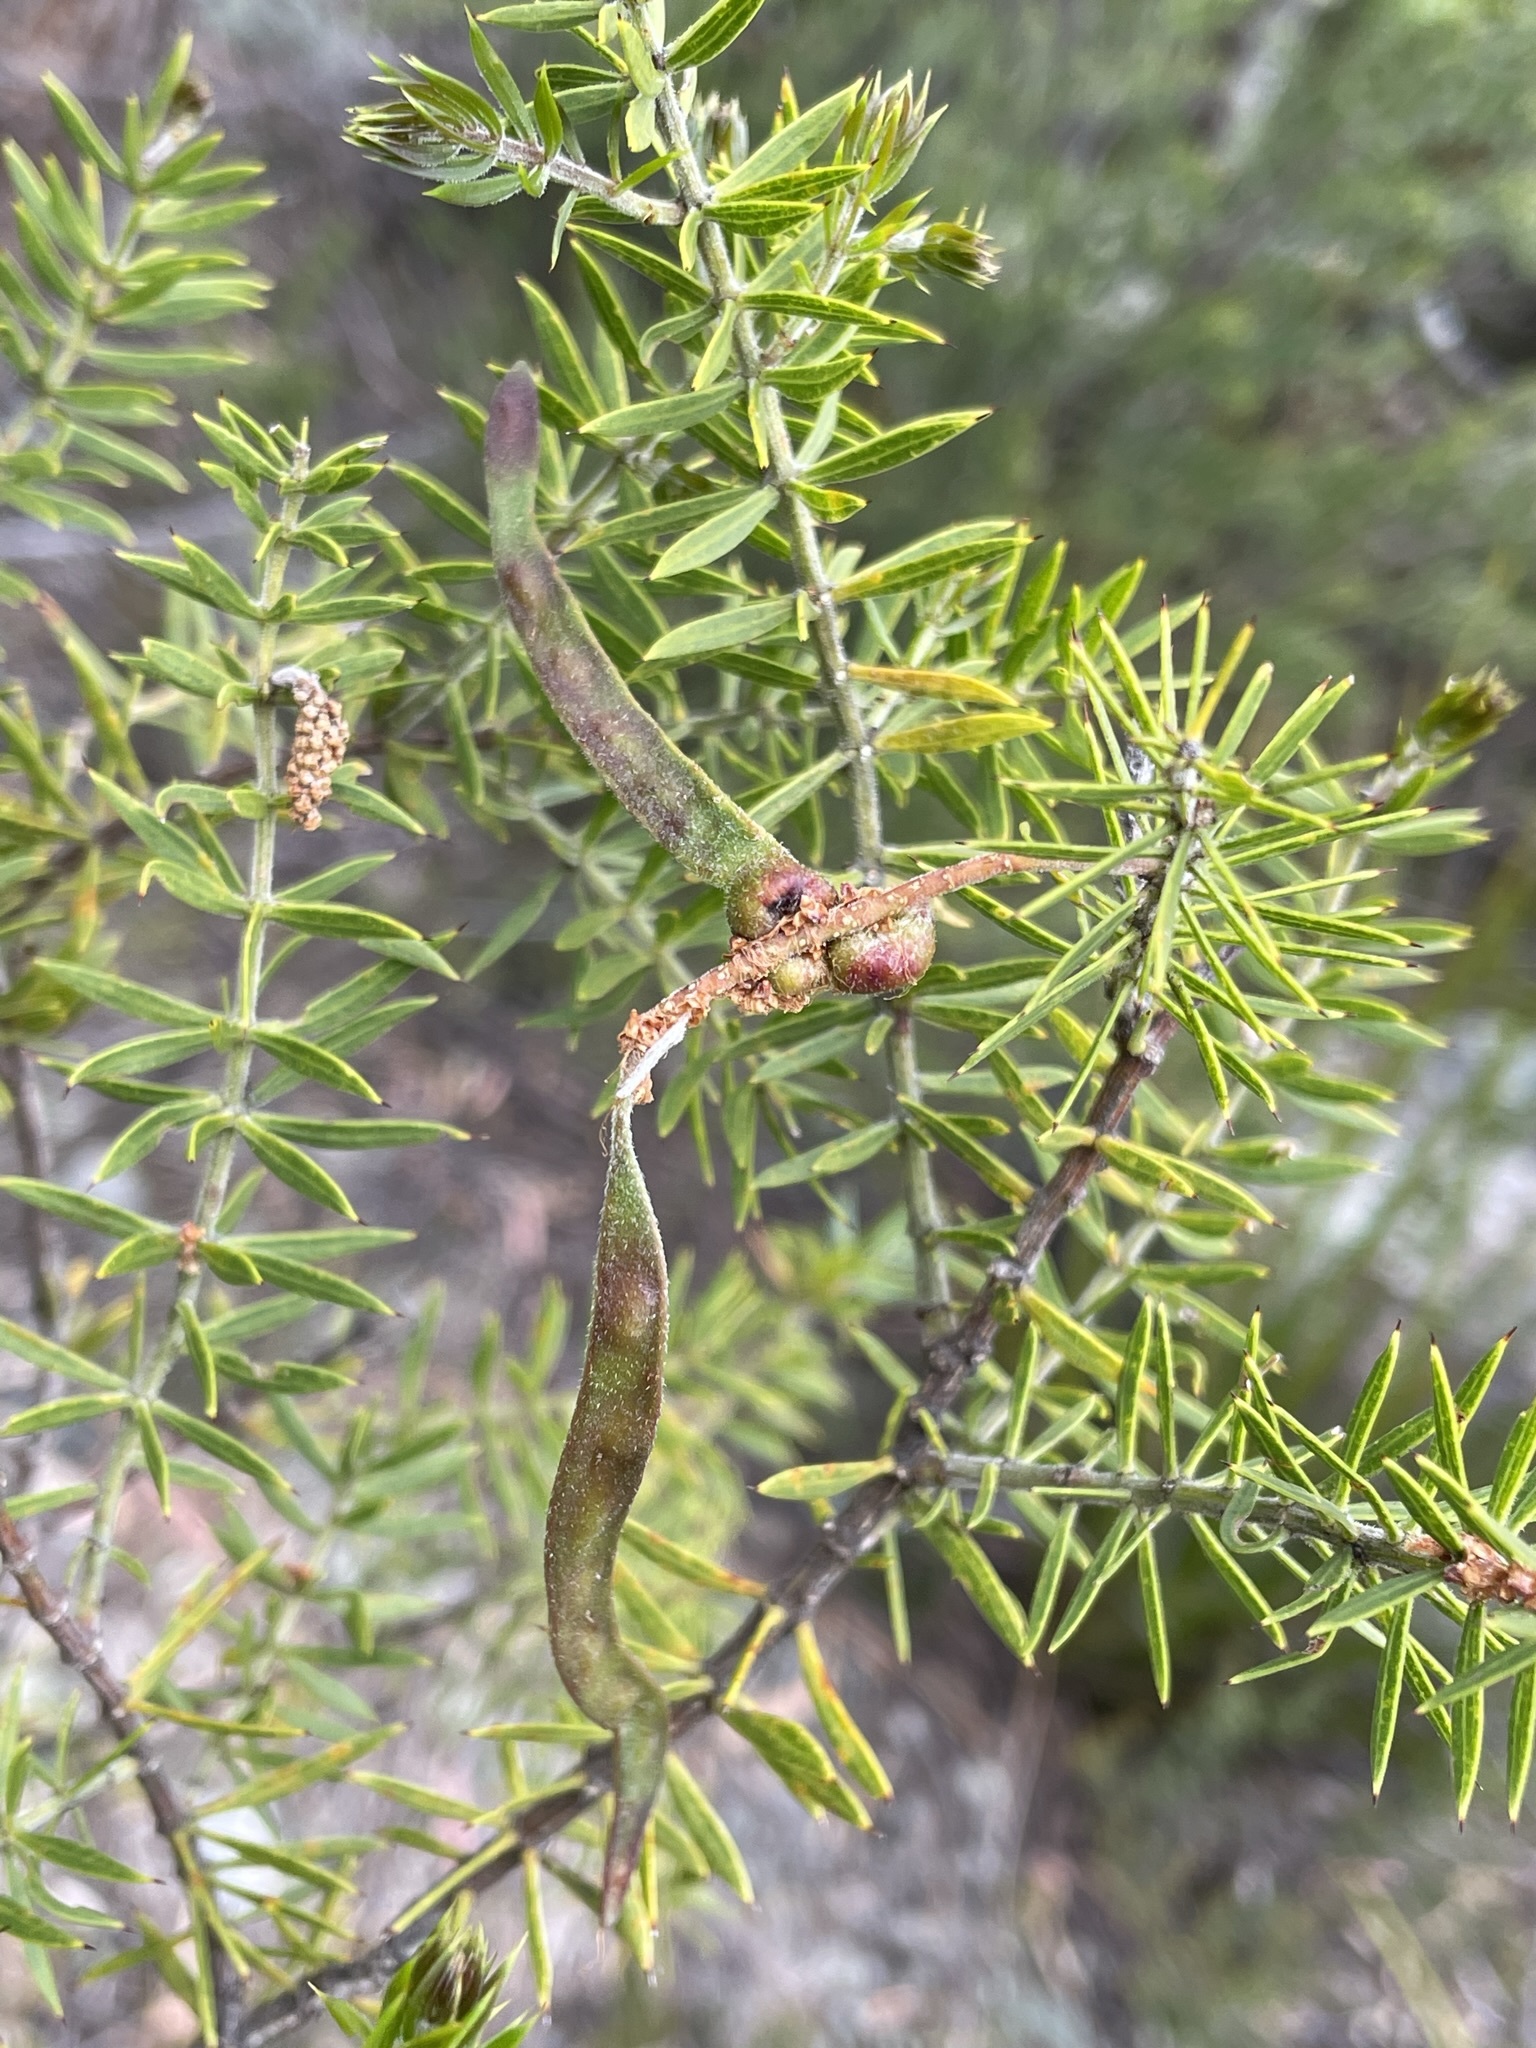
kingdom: Plantae
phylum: Tracheophyta
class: Magnoliopsida
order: Fabales
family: Fabaceae
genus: Acacia
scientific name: Acacia verticillata
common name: Prickly moses
